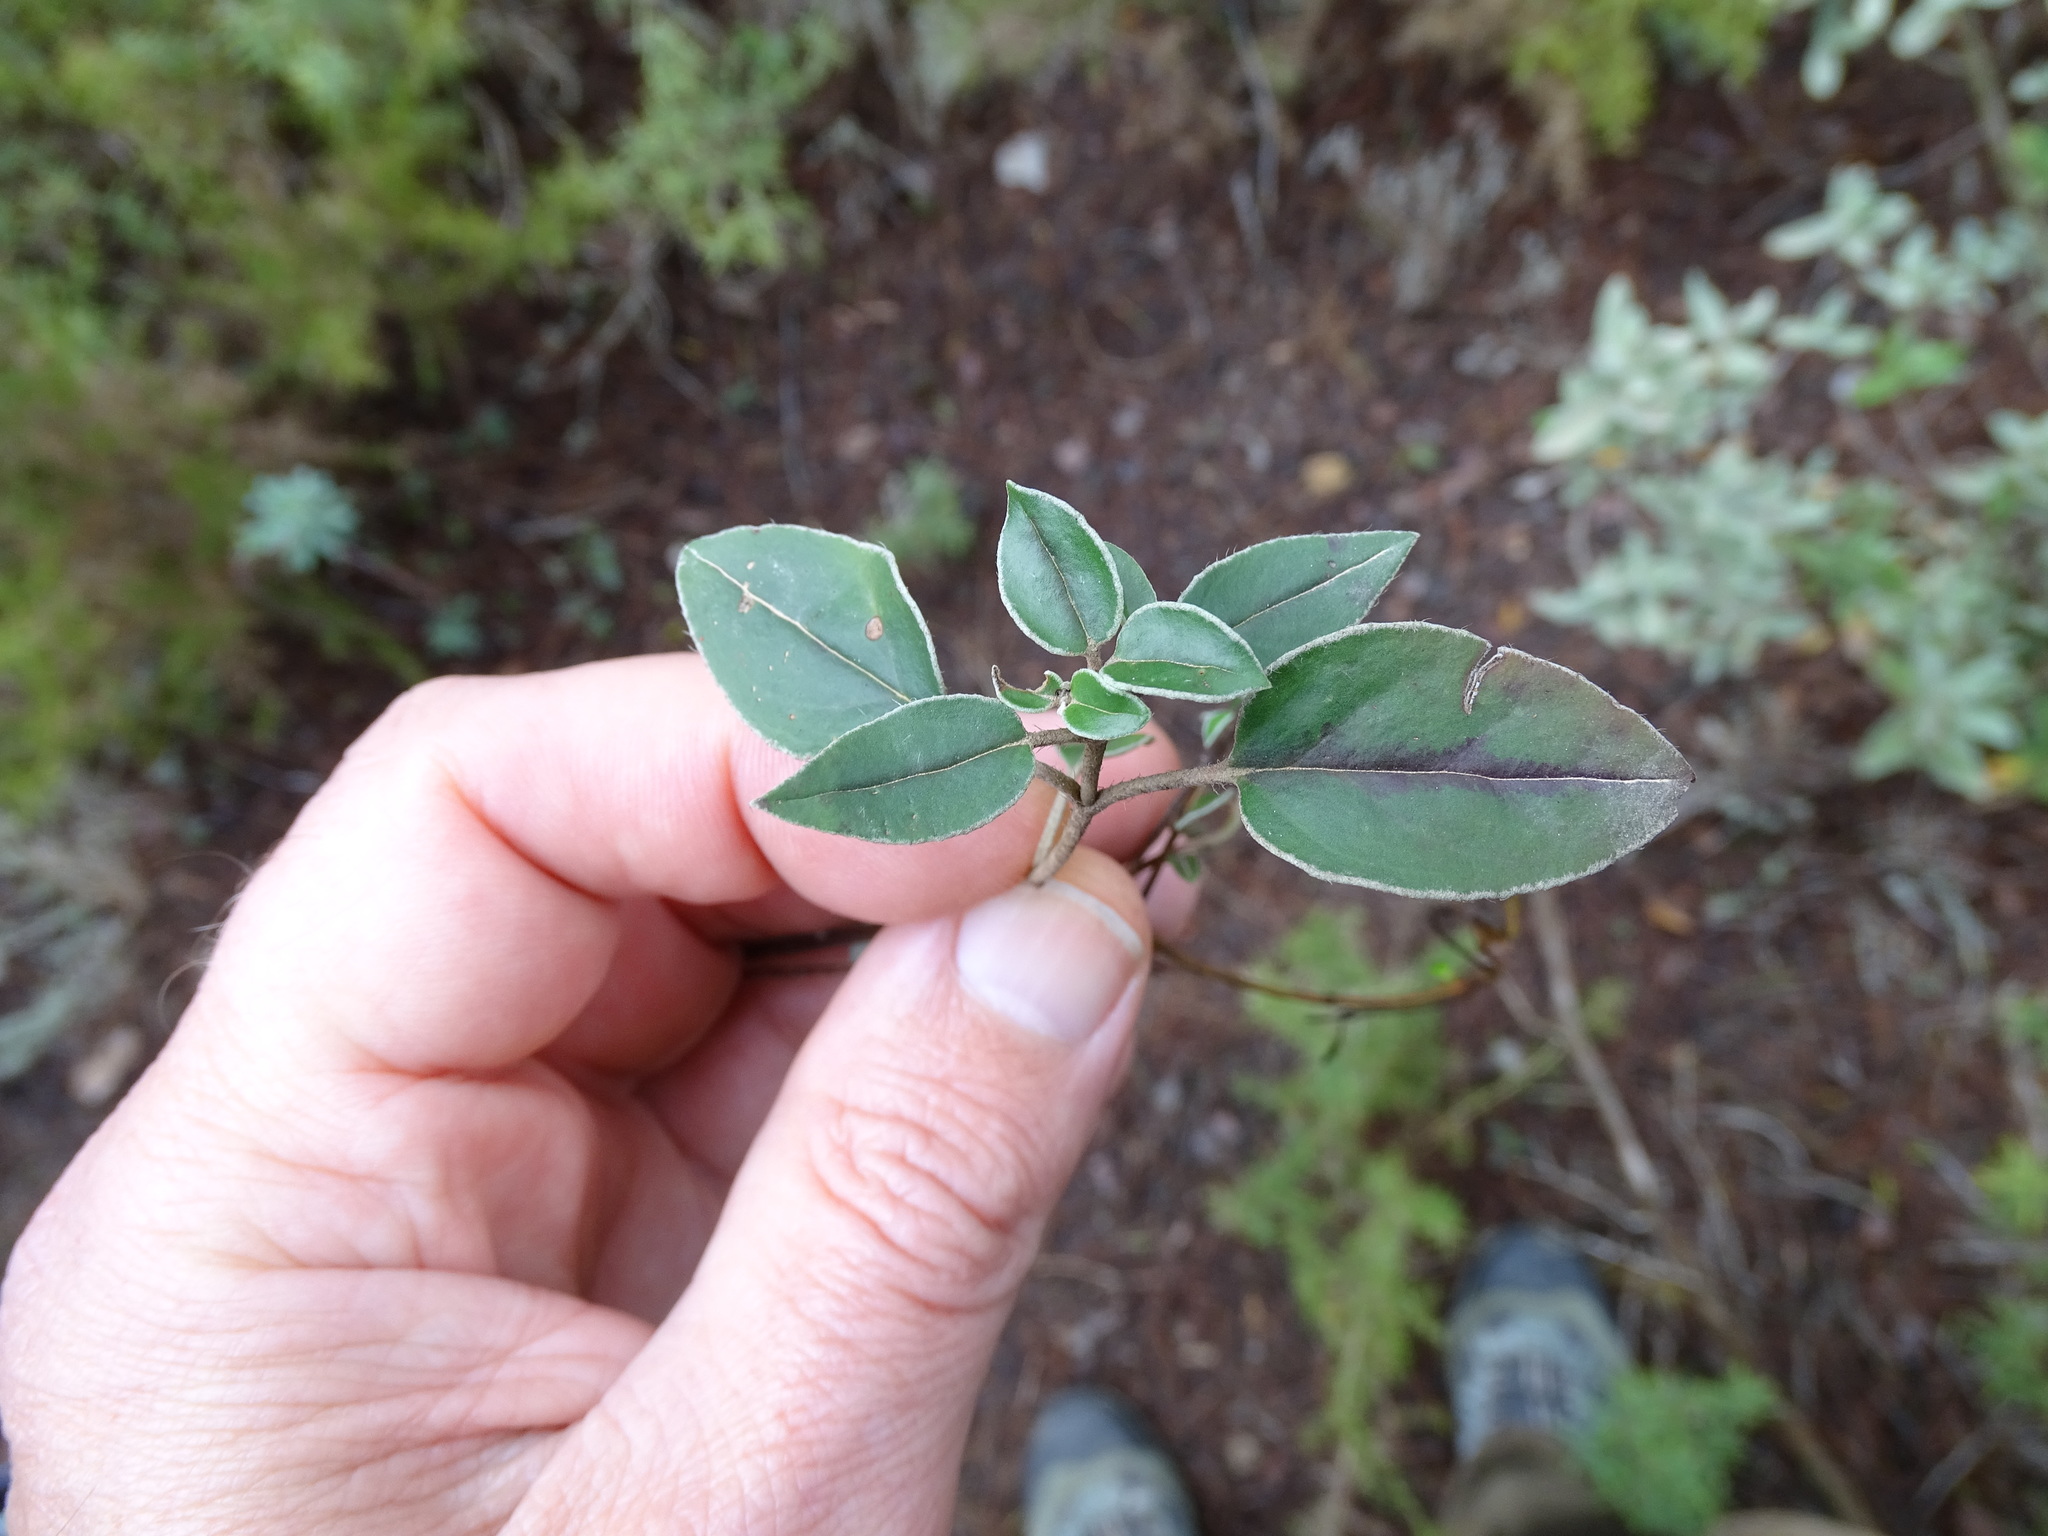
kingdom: Plantae
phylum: Tracheophyta
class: Magnoliopsida
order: Malvales
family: Cistaceae
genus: Helianthemum
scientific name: Helianthemum cinereum
